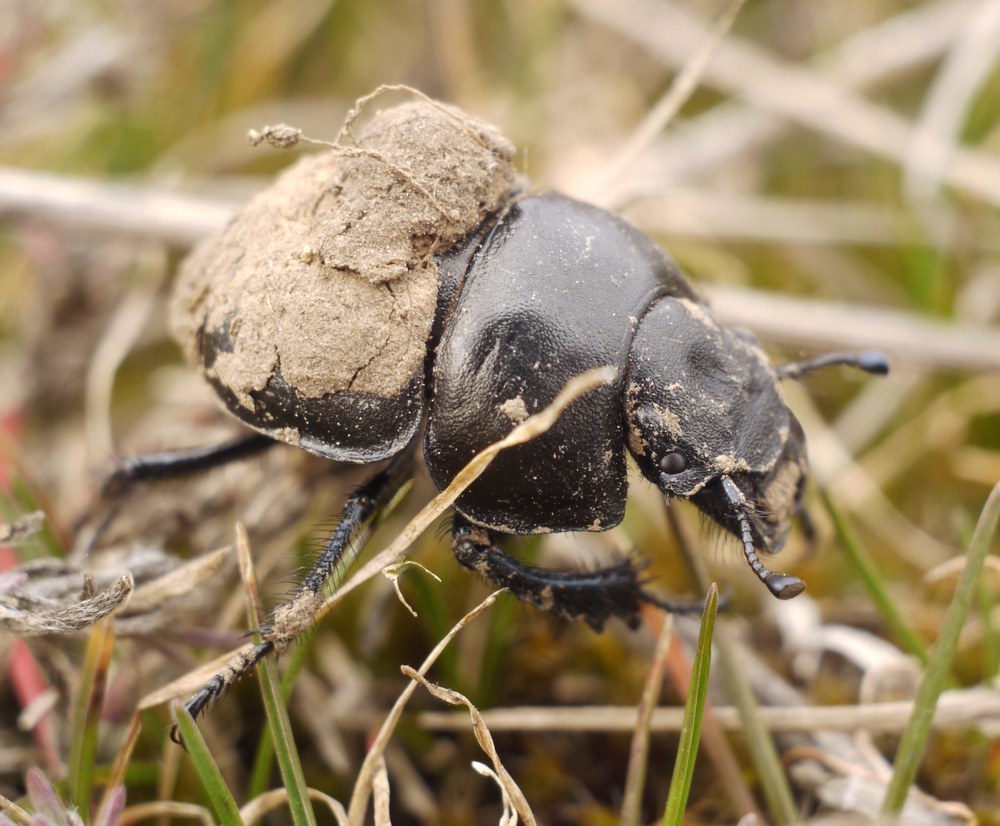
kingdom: Animalia
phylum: Arthropoda
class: Insecta
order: Coleoptera
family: Geotrupidae
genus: Lethrus
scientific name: Lethrus apterus
